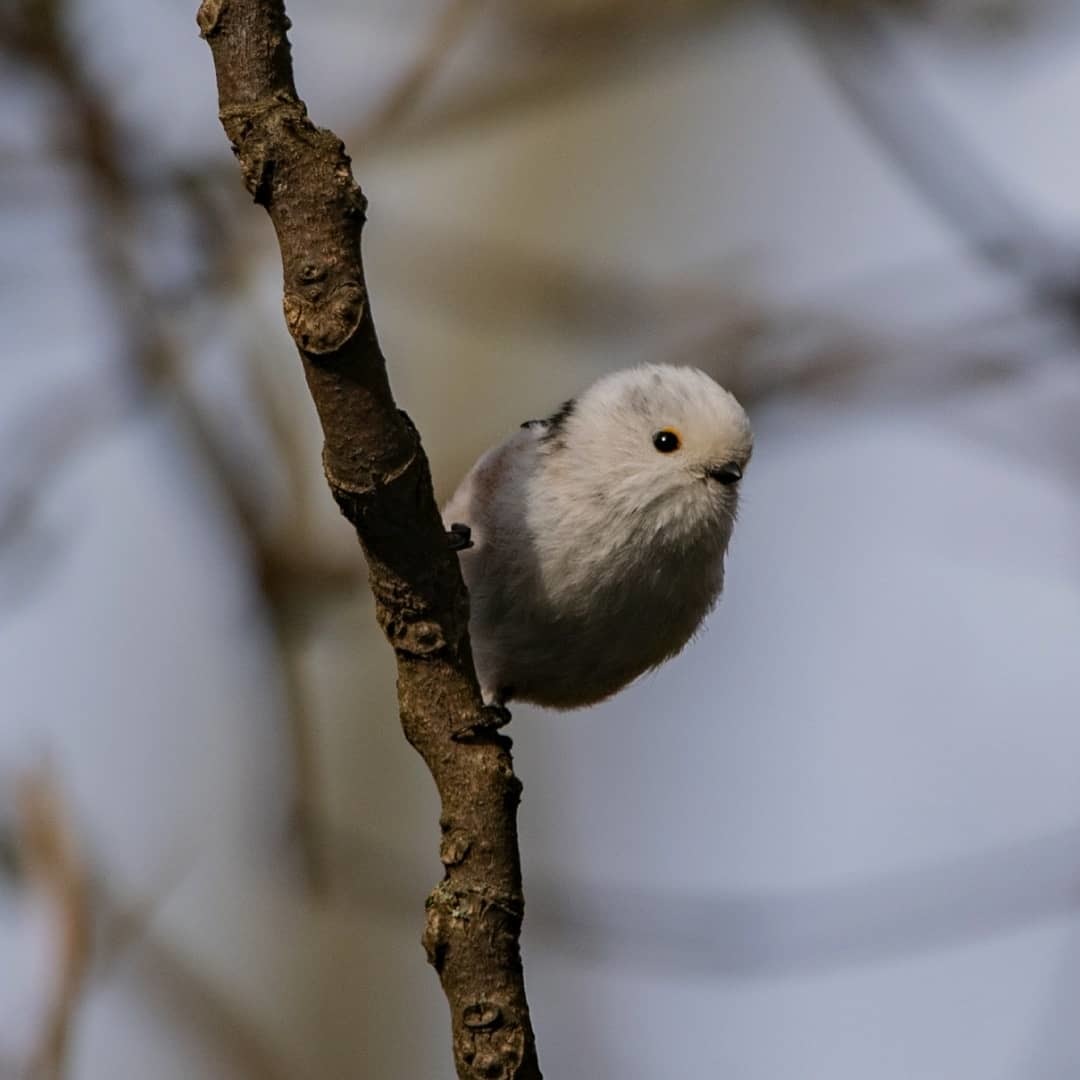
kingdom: Animalia
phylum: Chordata
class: Aves
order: Passeriformes
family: Aegithalidae
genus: Aegithalos
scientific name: Aegithalos caudatus
